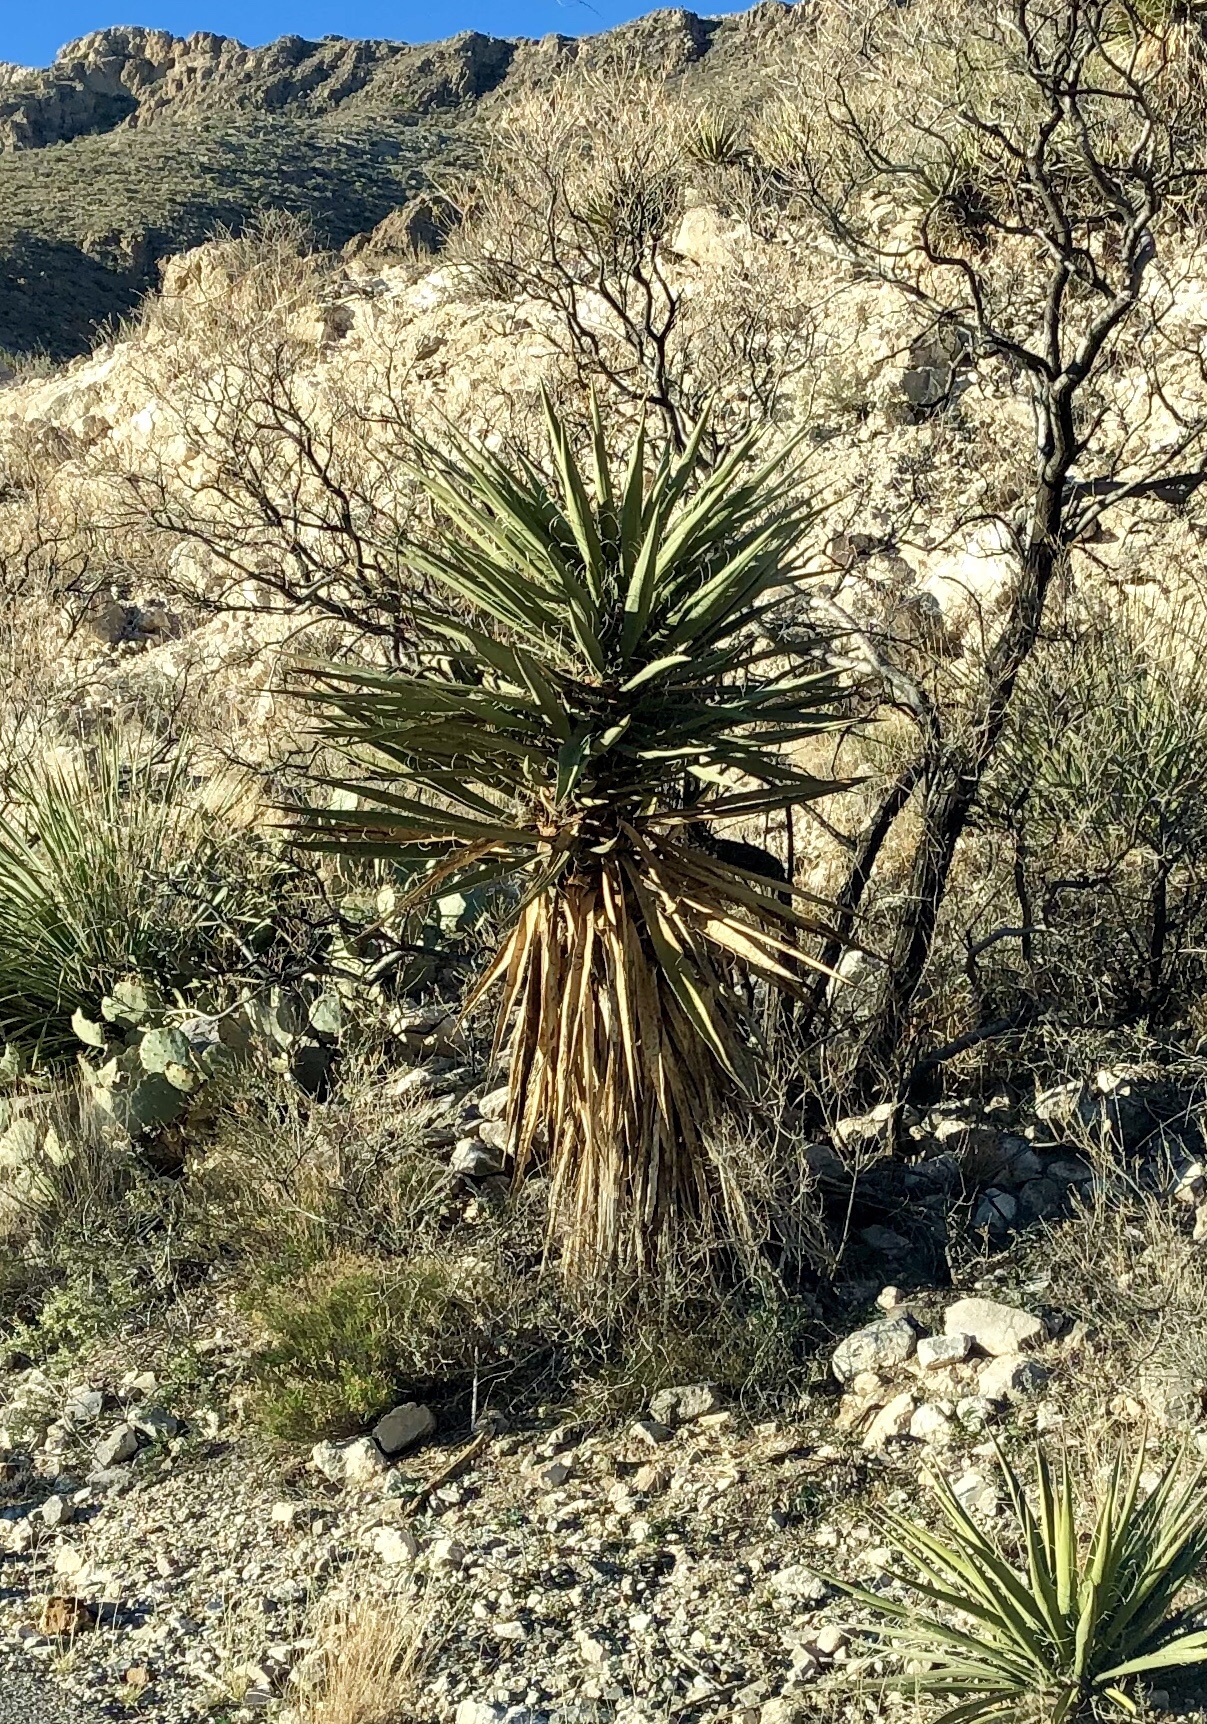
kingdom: Plantae
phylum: Tracheophyta
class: Liliopsida
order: Asparagales
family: Asparagaceae
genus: Yucca
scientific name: Yucca treculiana
